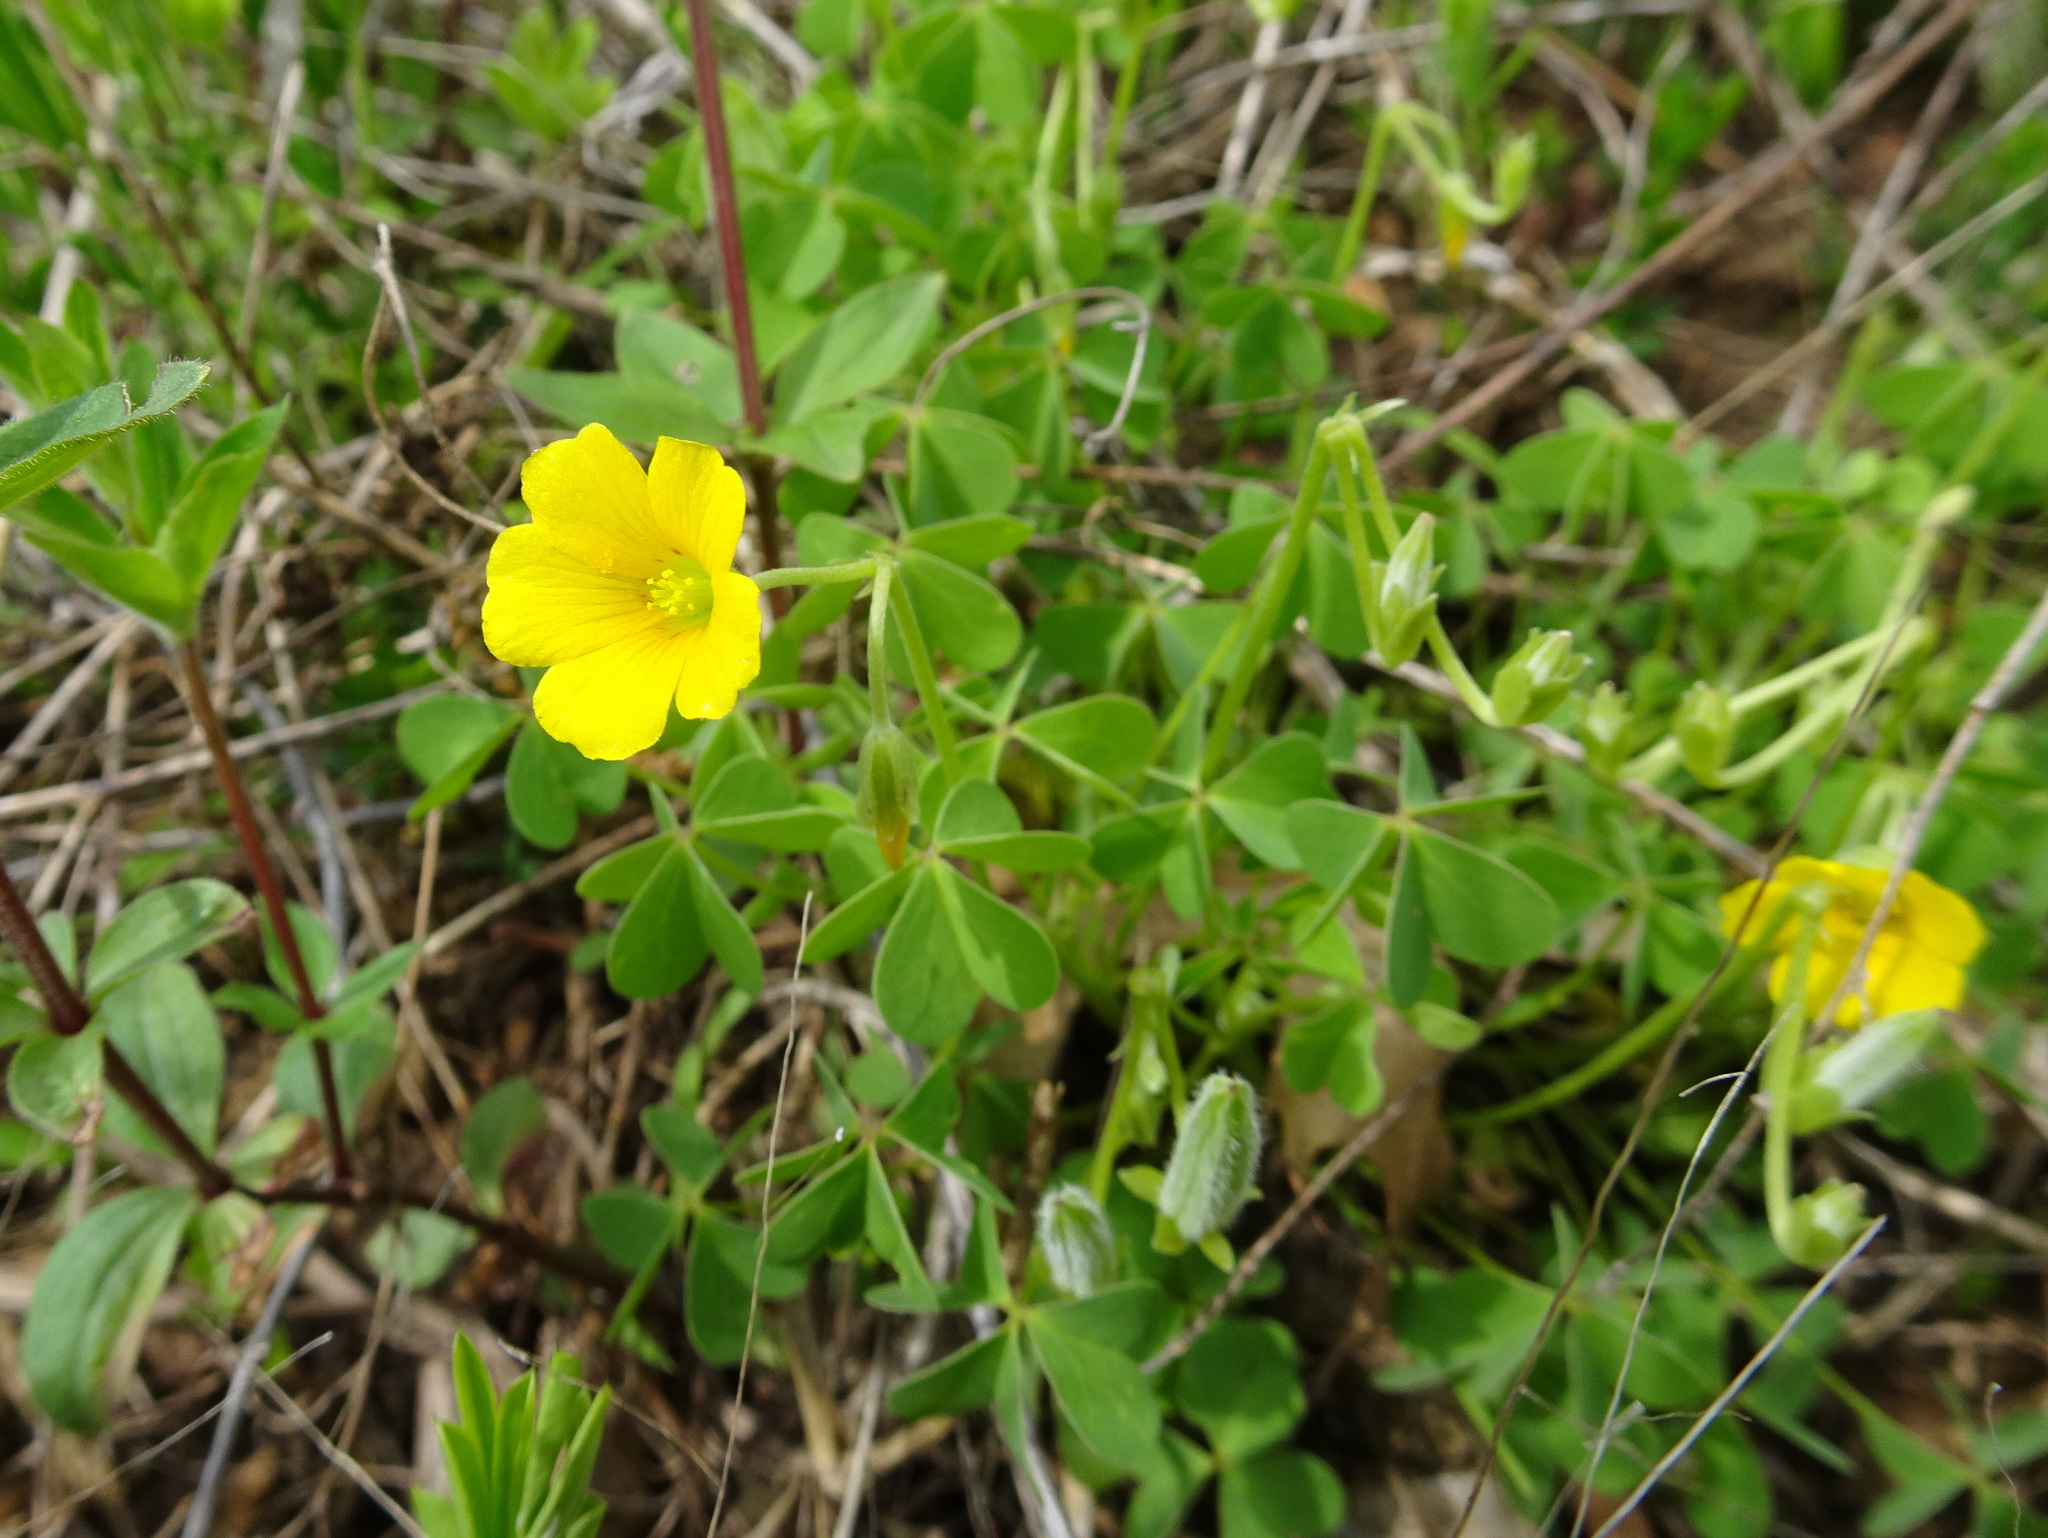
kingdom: Plantae
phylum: Tracheophyta
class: Magnoliopsida
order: Oxalidales
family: Oxalidaceae
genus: Oxalis
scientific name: Oxalis dillenii
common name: Sussex yellow-sorrel
